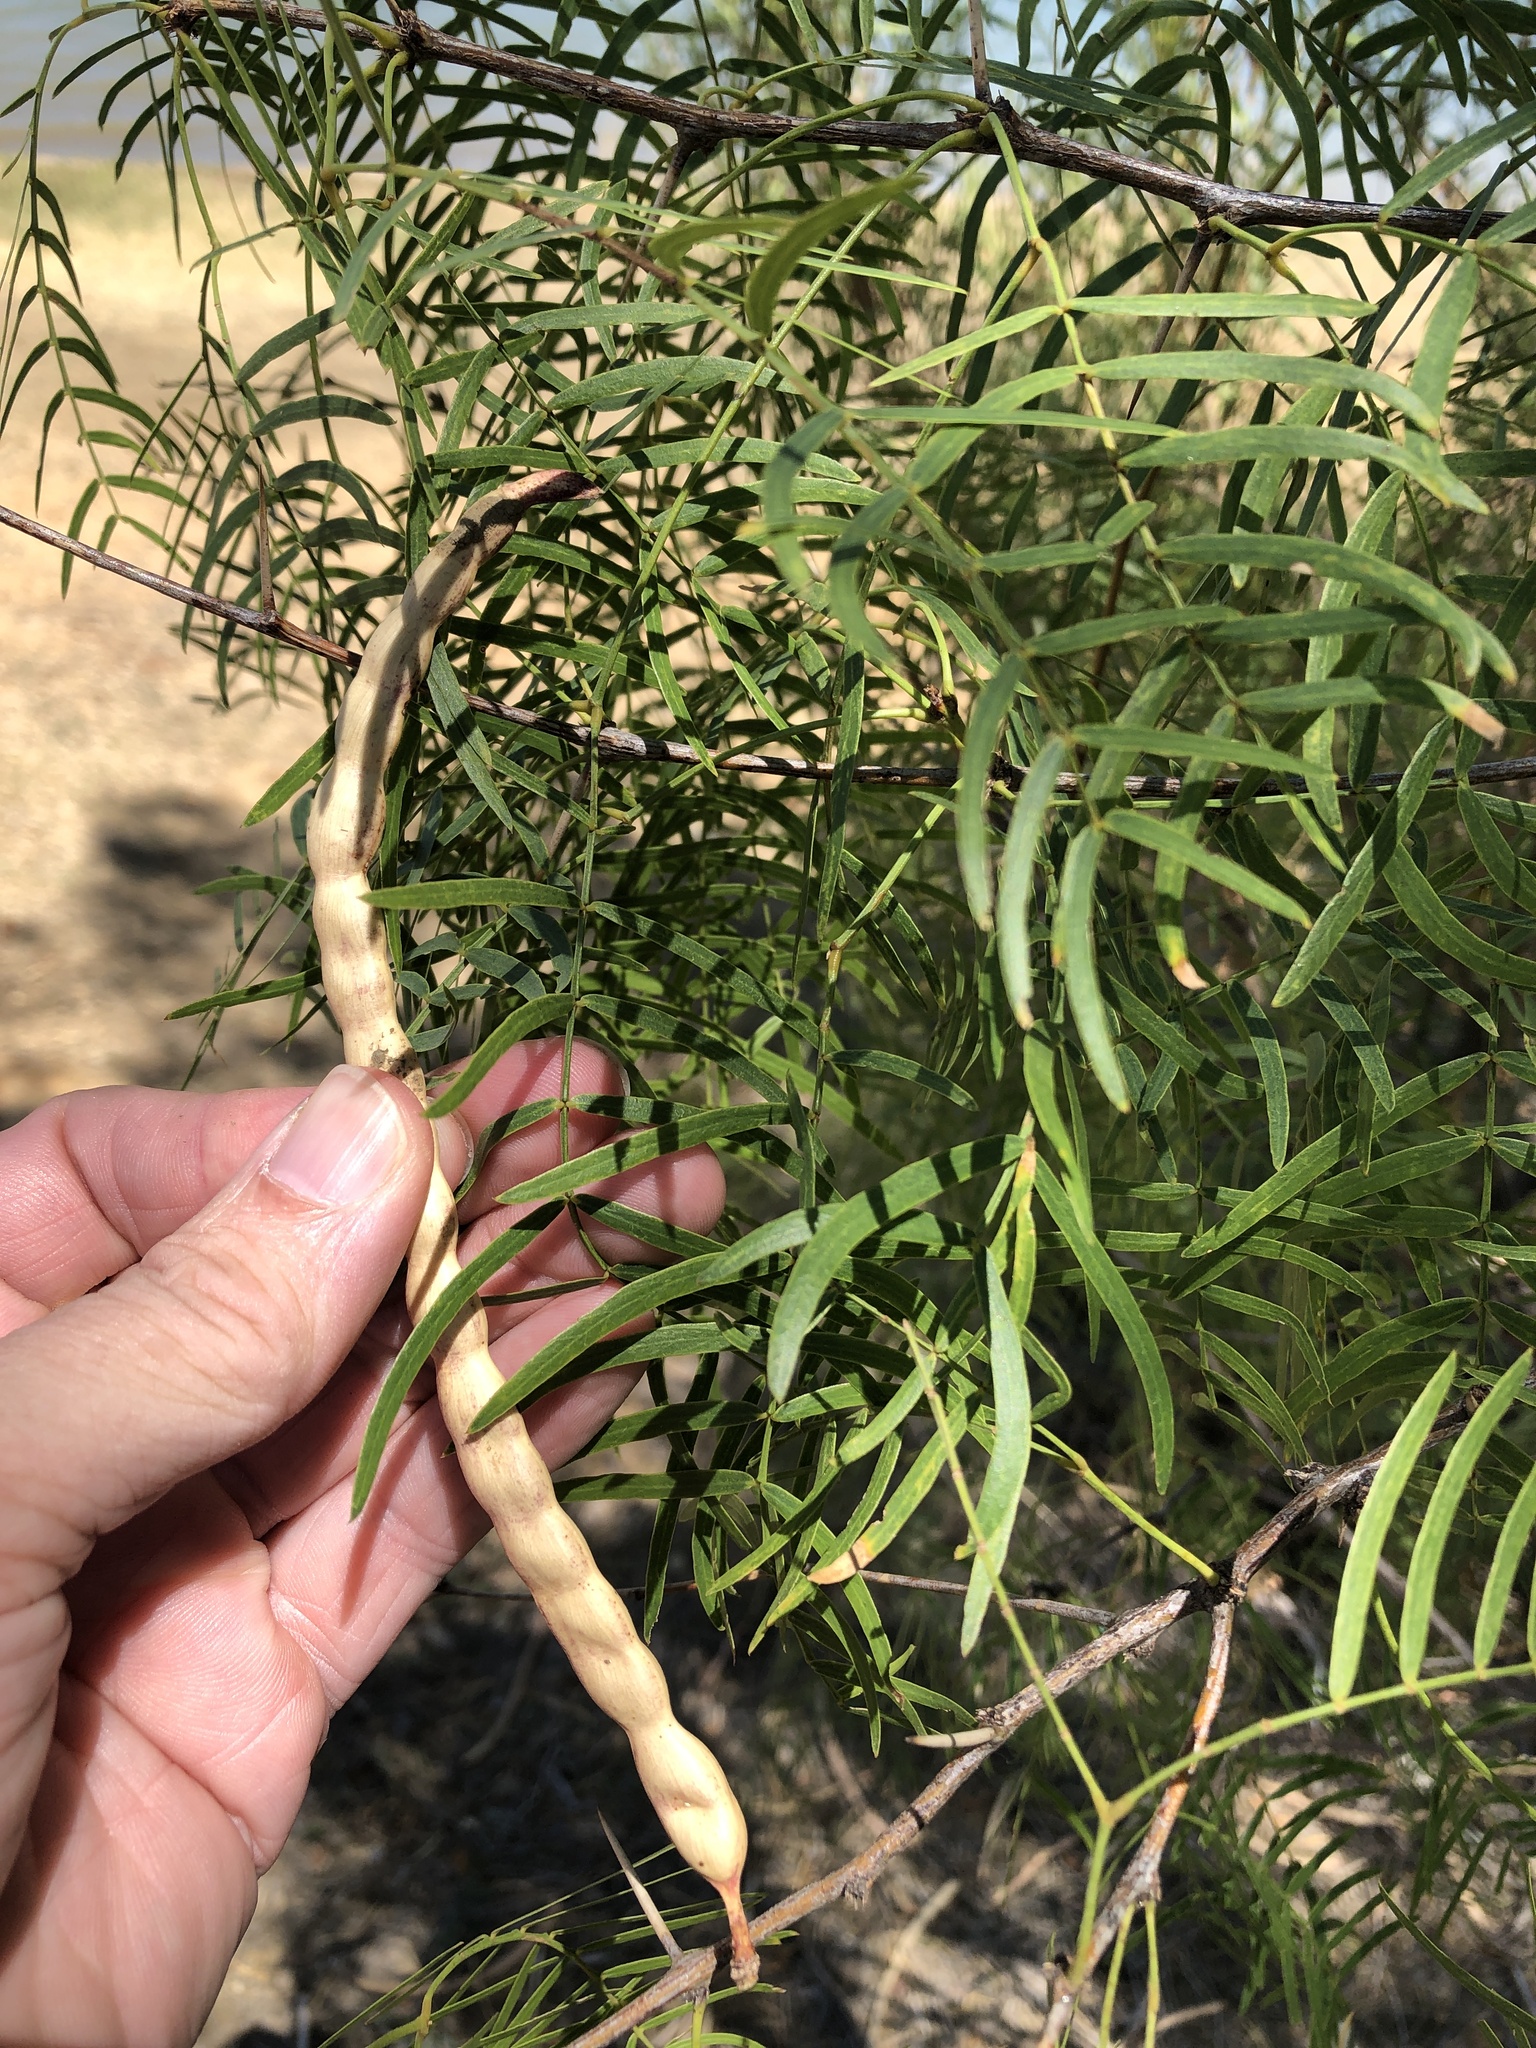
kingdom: Plantae
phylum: Tracheophyta
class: Magnoliopsida
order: Fabales
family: Fabaceae
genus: Prosopis
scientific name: Prosopis glandulosa
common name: Honey mesquite
